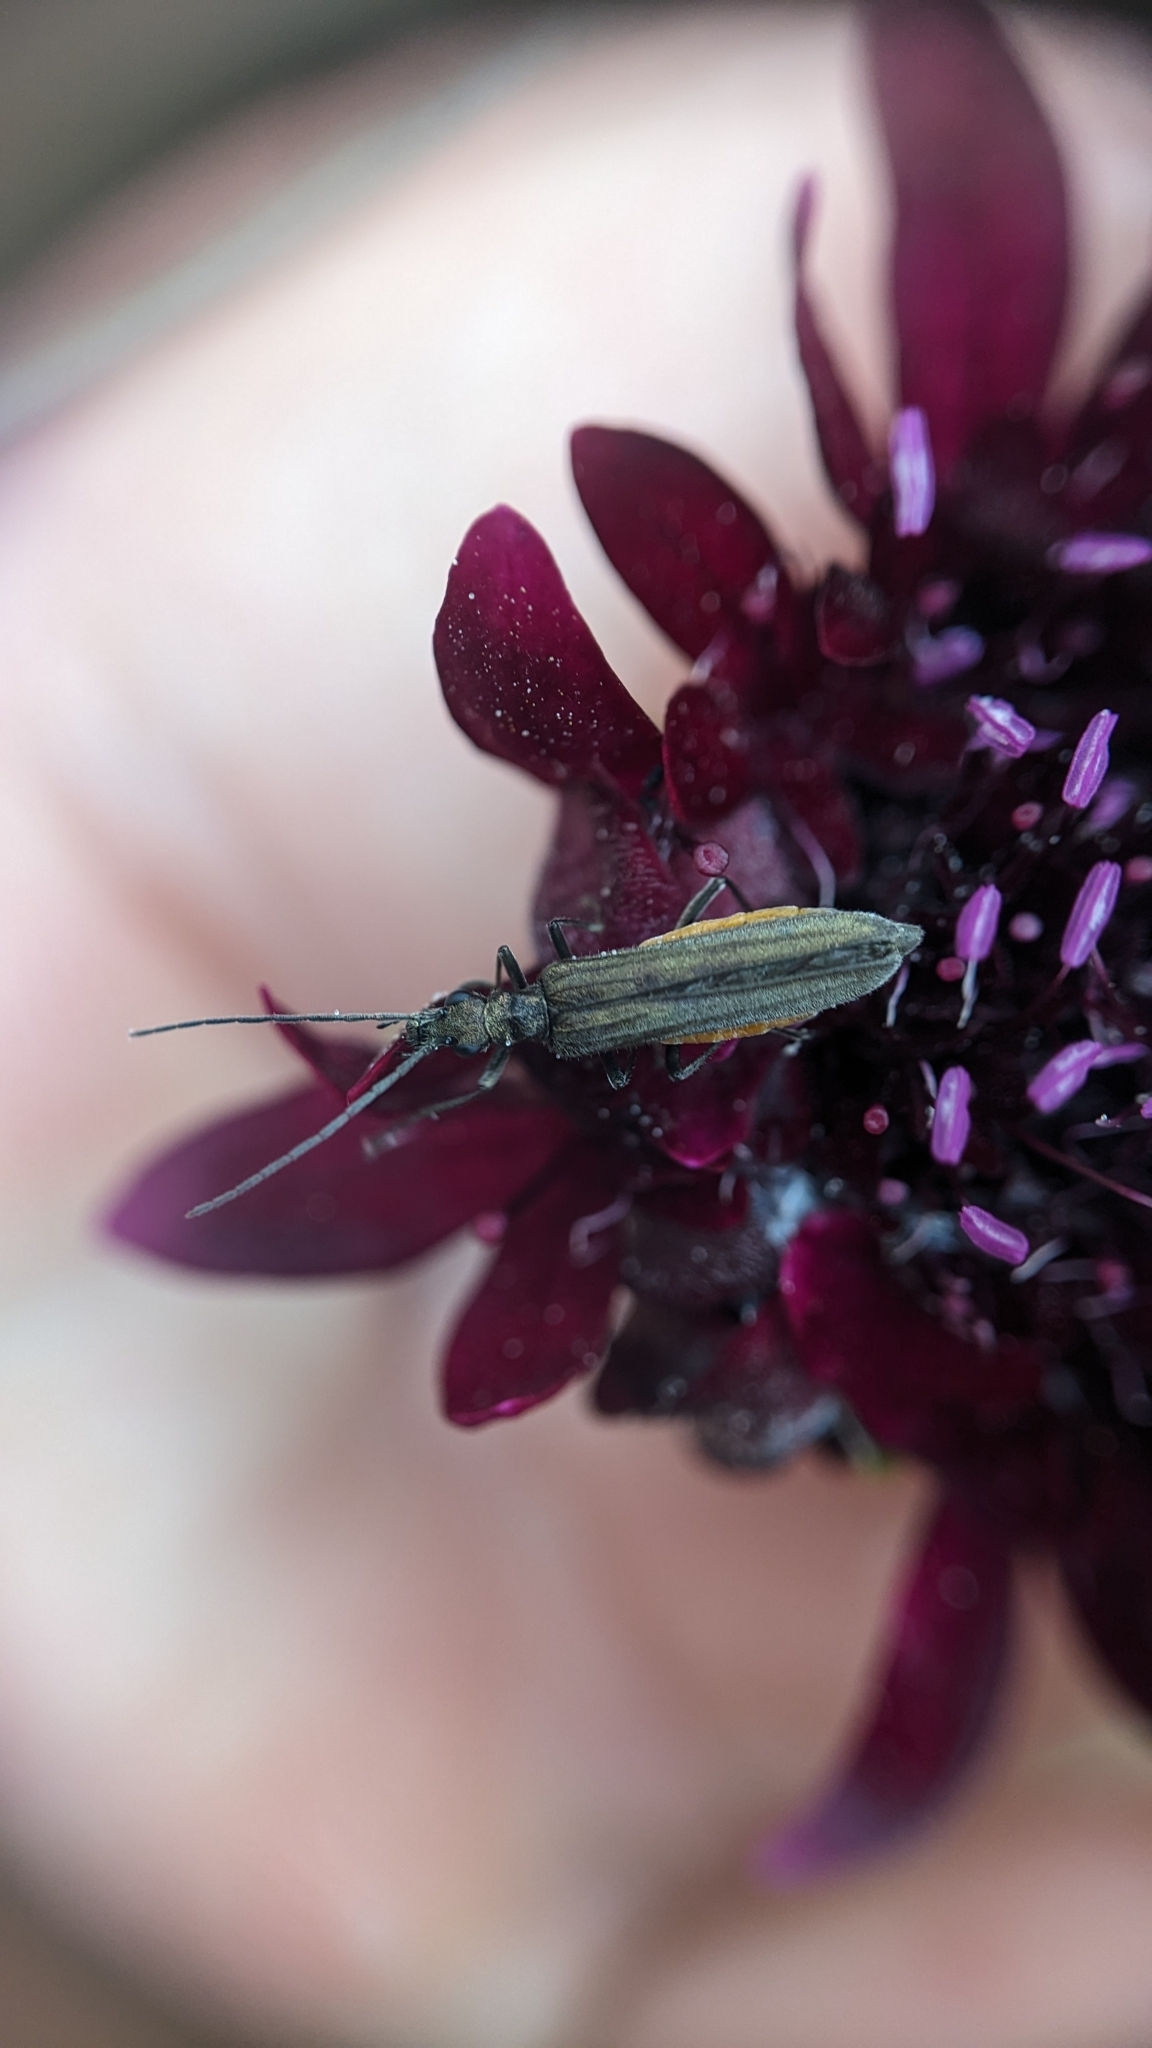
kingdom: Animalia
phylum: Arthropoda
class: Insecta
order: Coleoptera
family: Oedemeridae
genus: Oedemera
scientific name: Oedemera lurida
